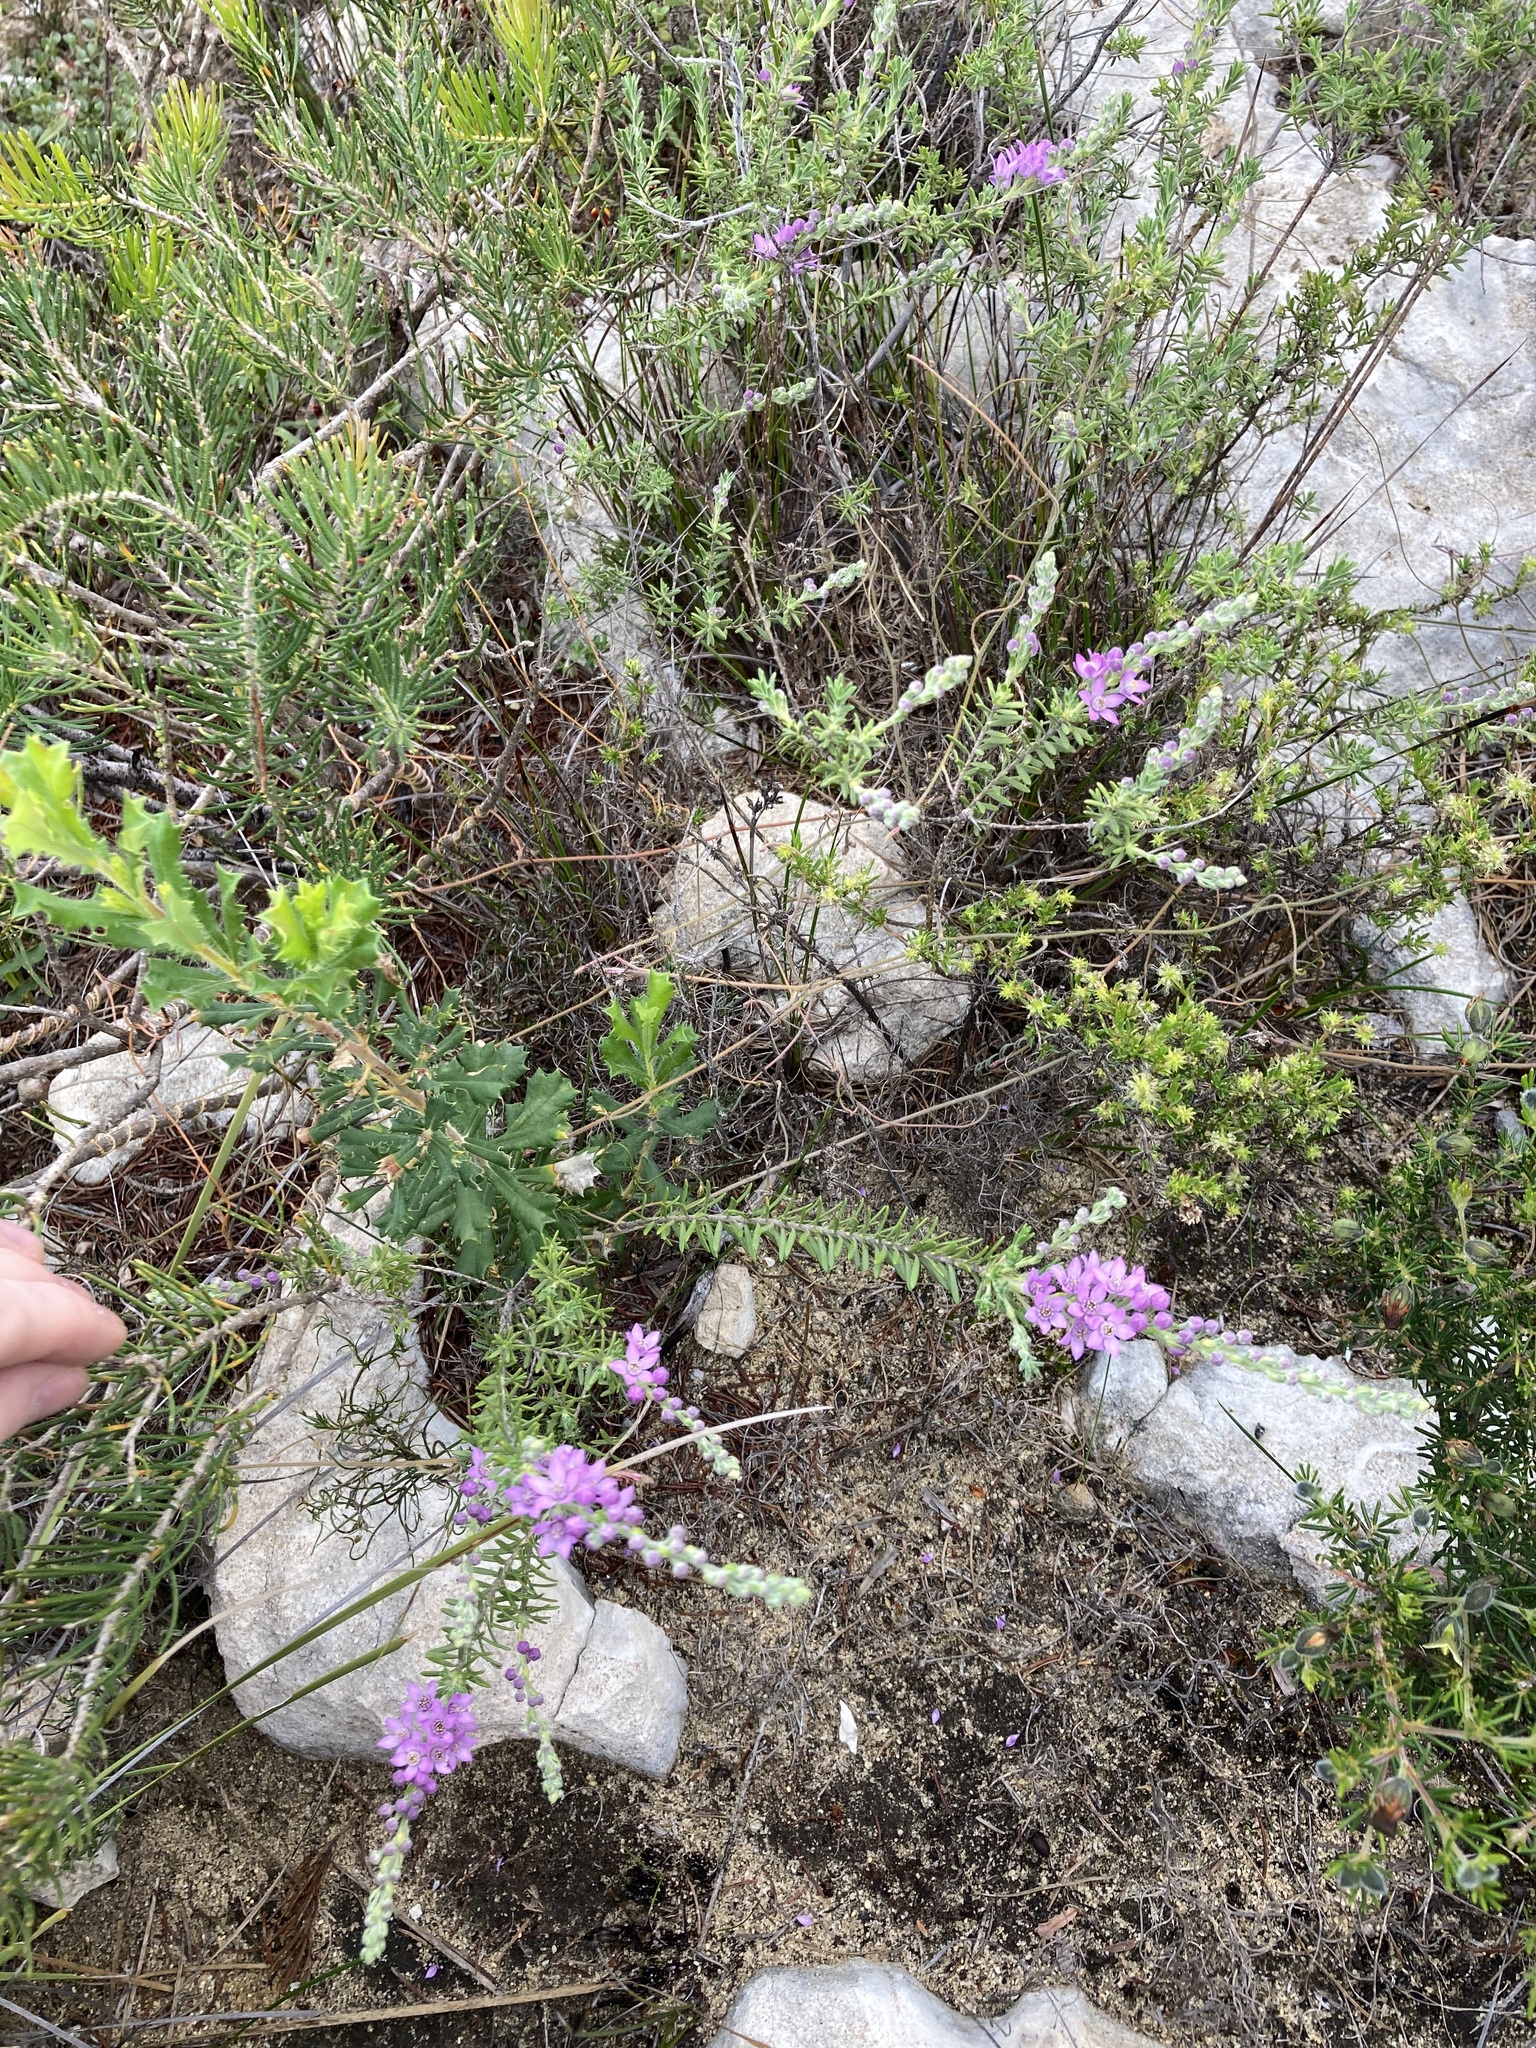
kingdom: Plantae
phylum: Tracheophyta
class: Magnoliopsida
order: Sapindales
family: Rutaceae
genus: Philotheca
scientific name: Philotheca spicata
